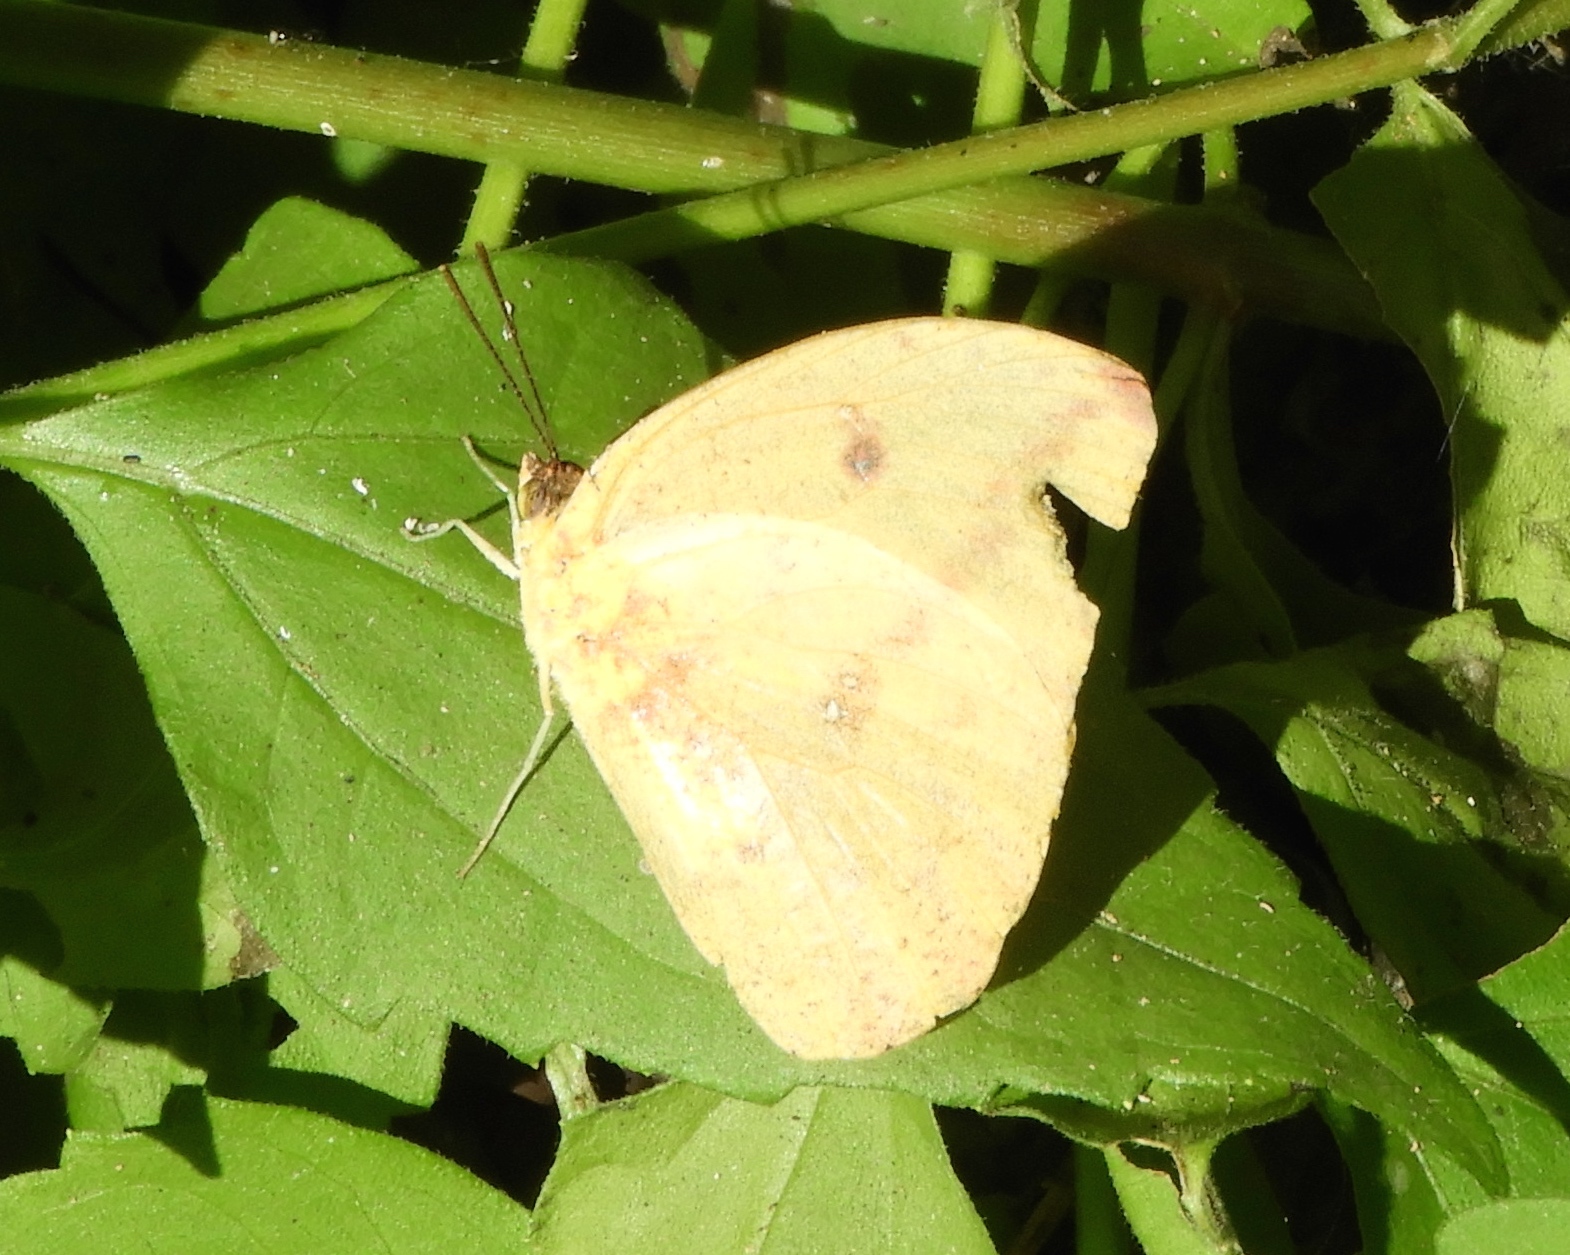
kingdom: Animalia
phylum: Arthropoda
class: Insecta
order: Lepidoptera
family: Pieridae
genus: Phoebis
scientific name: Phoebis agarithe
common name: Large orange sulphur
